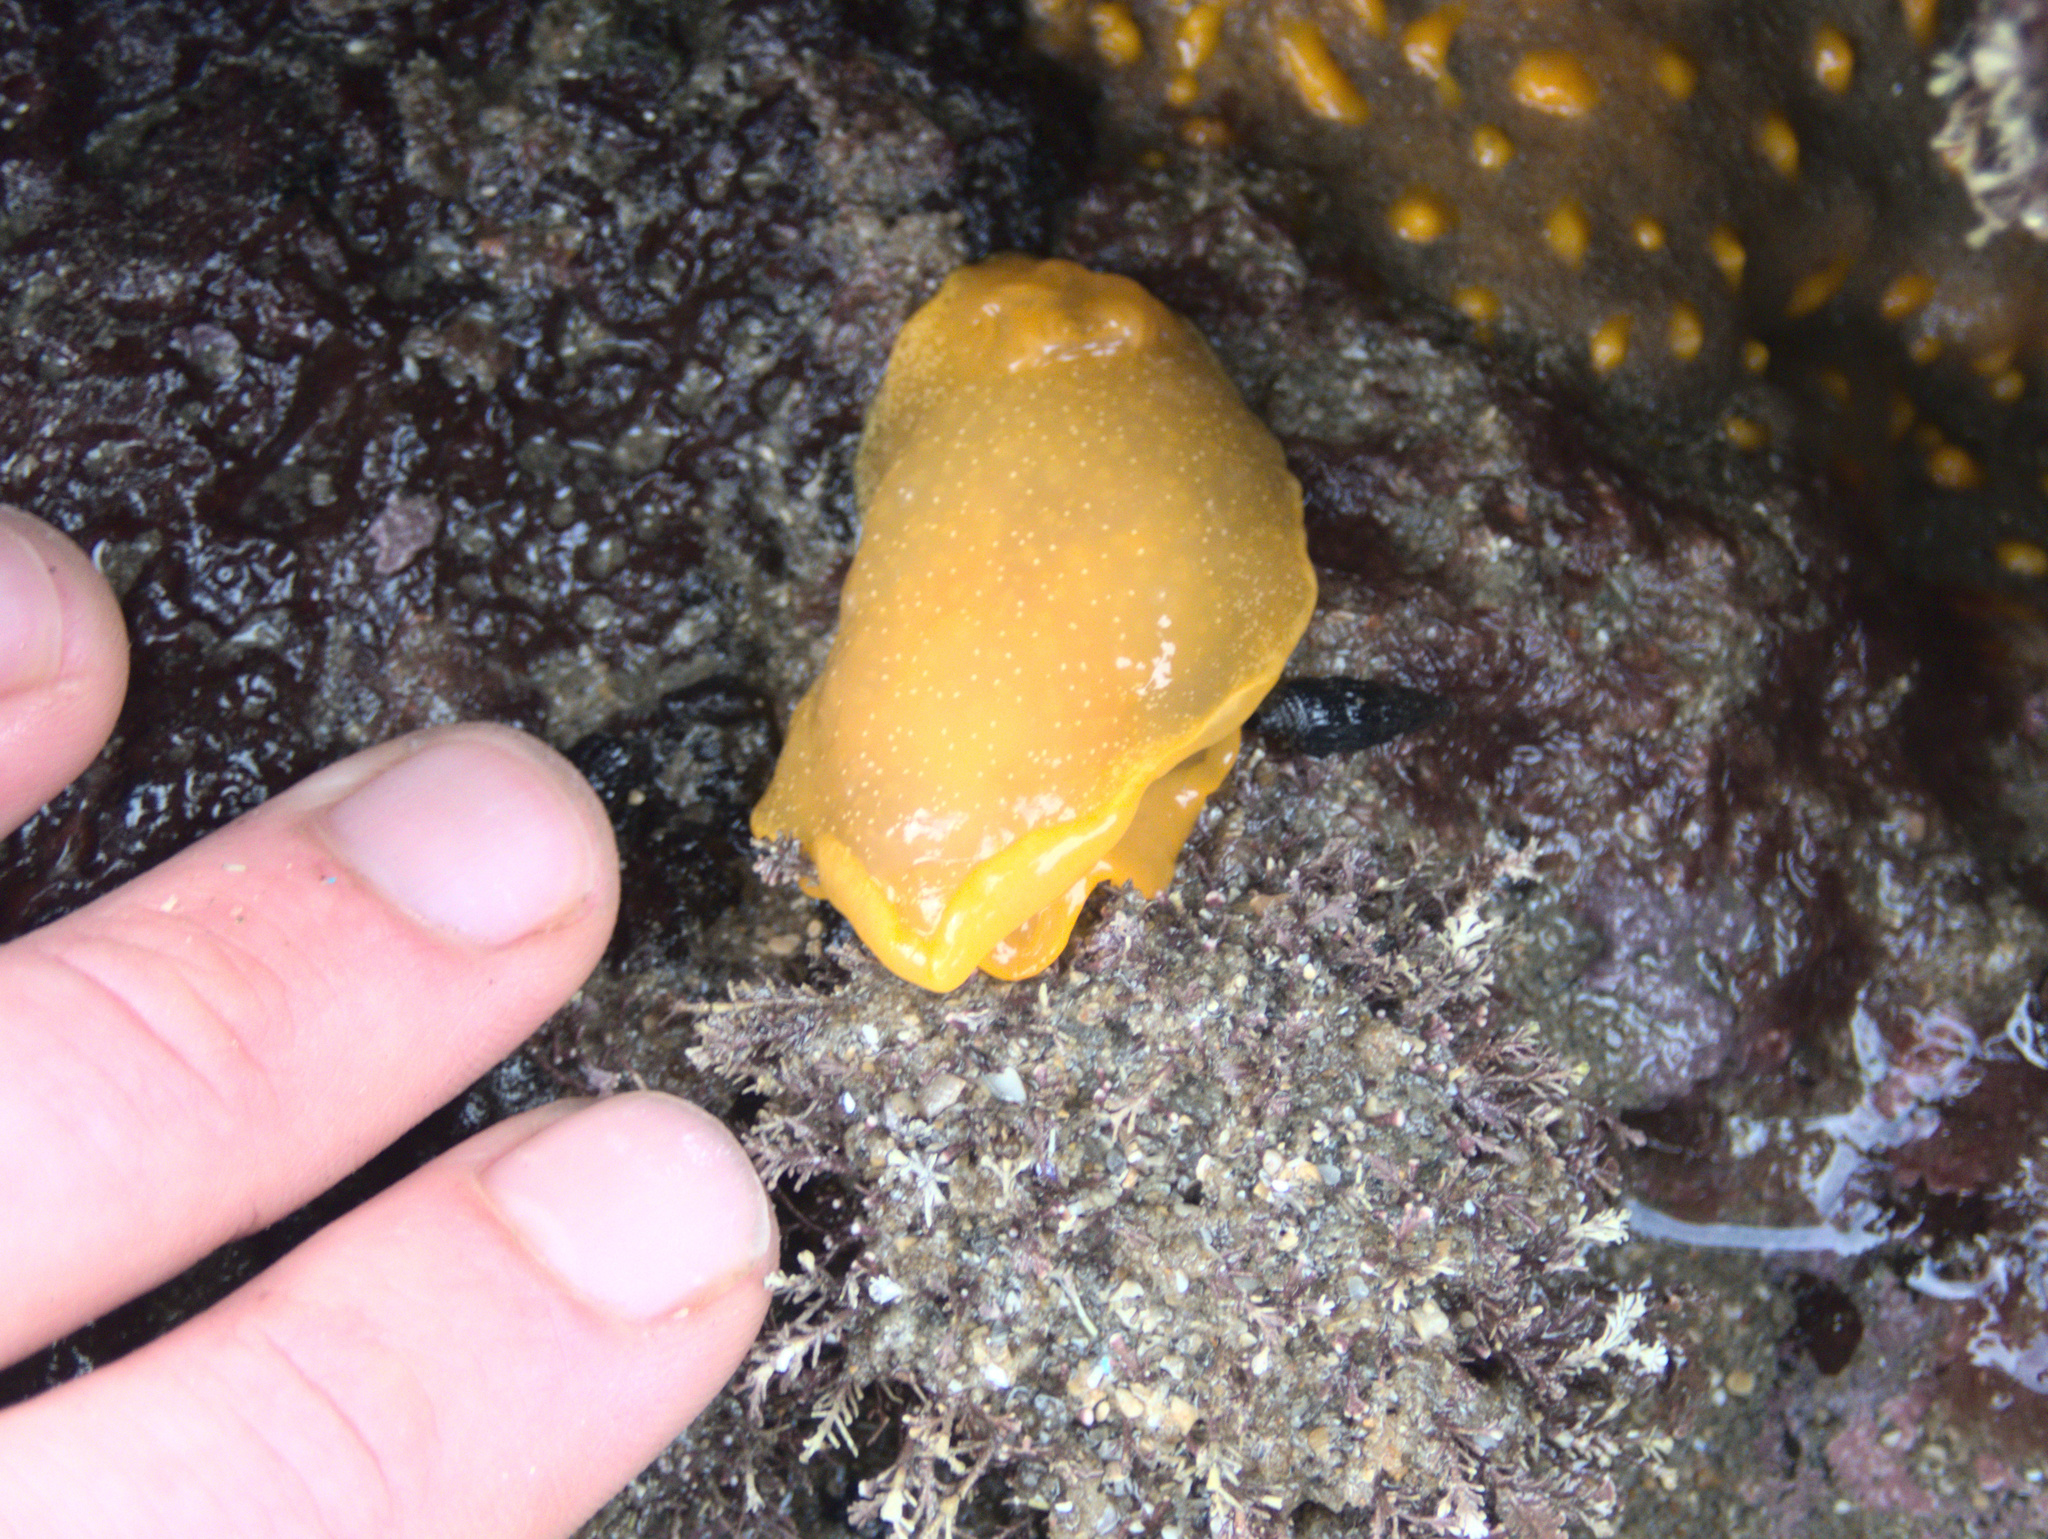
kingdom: Animalia
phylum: Mollusca
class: Gastropoda
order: Nudibranchia
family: Dendrodorididae
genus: Dendrodoris
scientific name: Dendrodoris citrina
